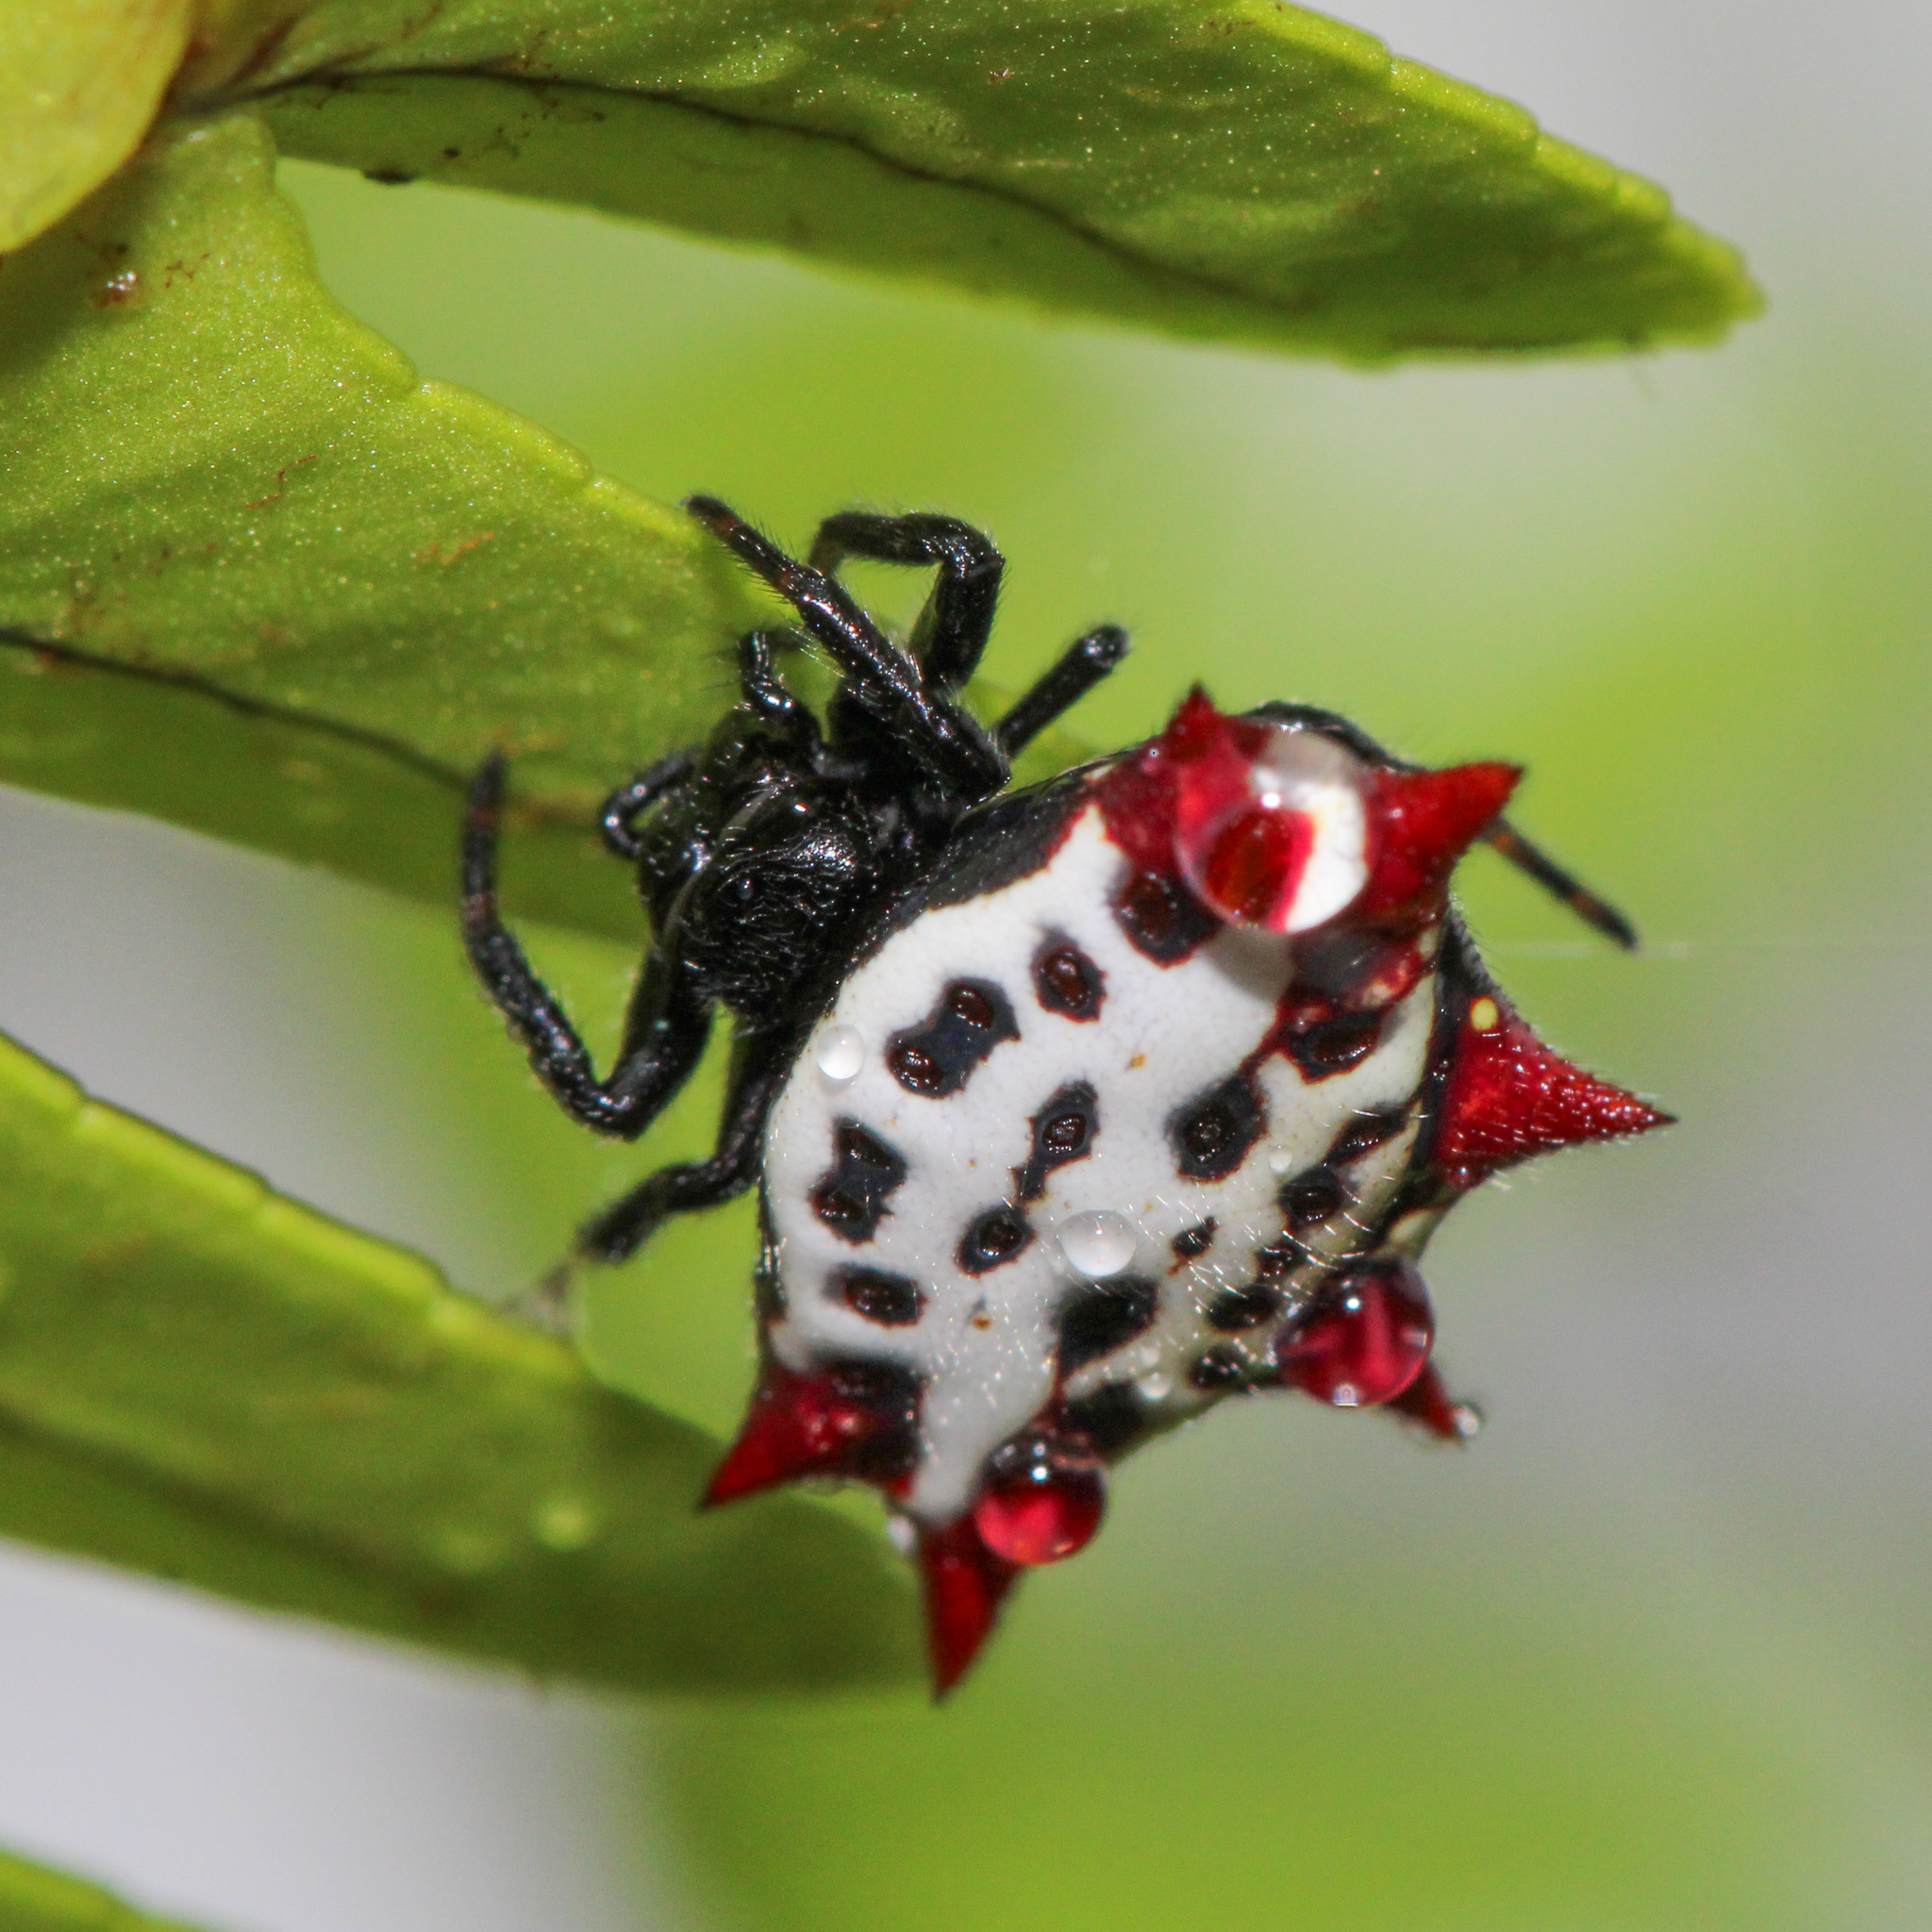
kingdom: Animalia
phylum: Arthropoda
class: Arachnida
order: Araneae
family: Araneidae
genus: Gasteracantha
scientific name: Gasteracantha cancriformis
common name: Orb weavers
